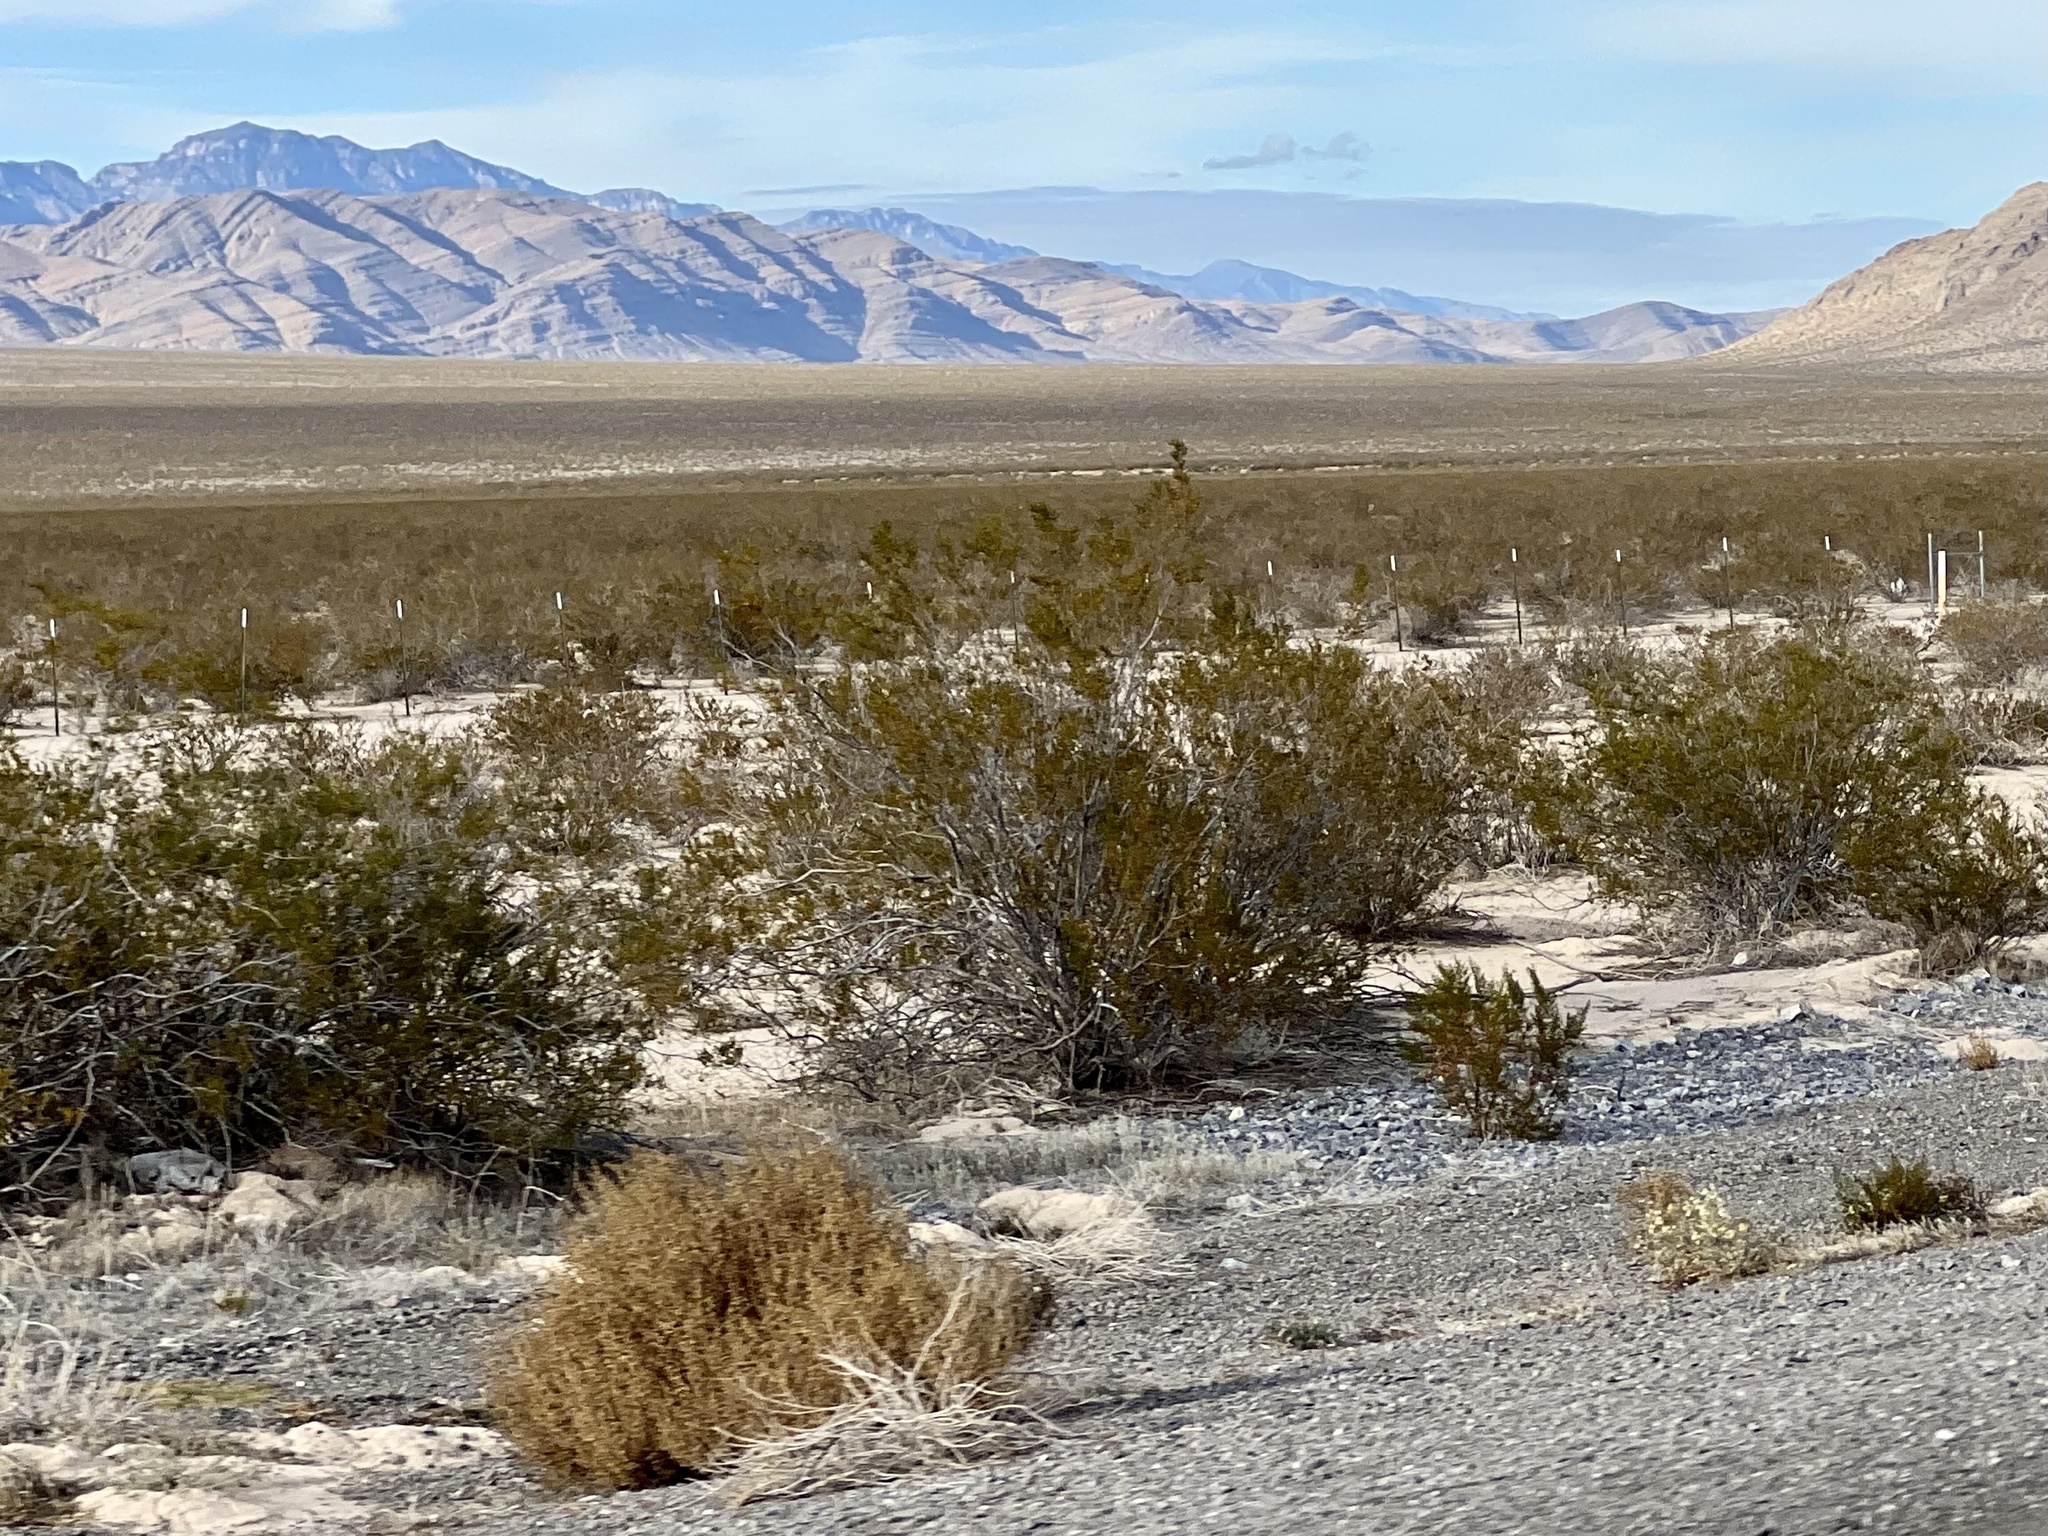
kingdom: Plantae
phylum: Tracheophyta
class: Magnoliopsida
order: Zygophyllales
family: Zygophyllaceae
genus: Larrea
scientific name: Larrea tridentata
